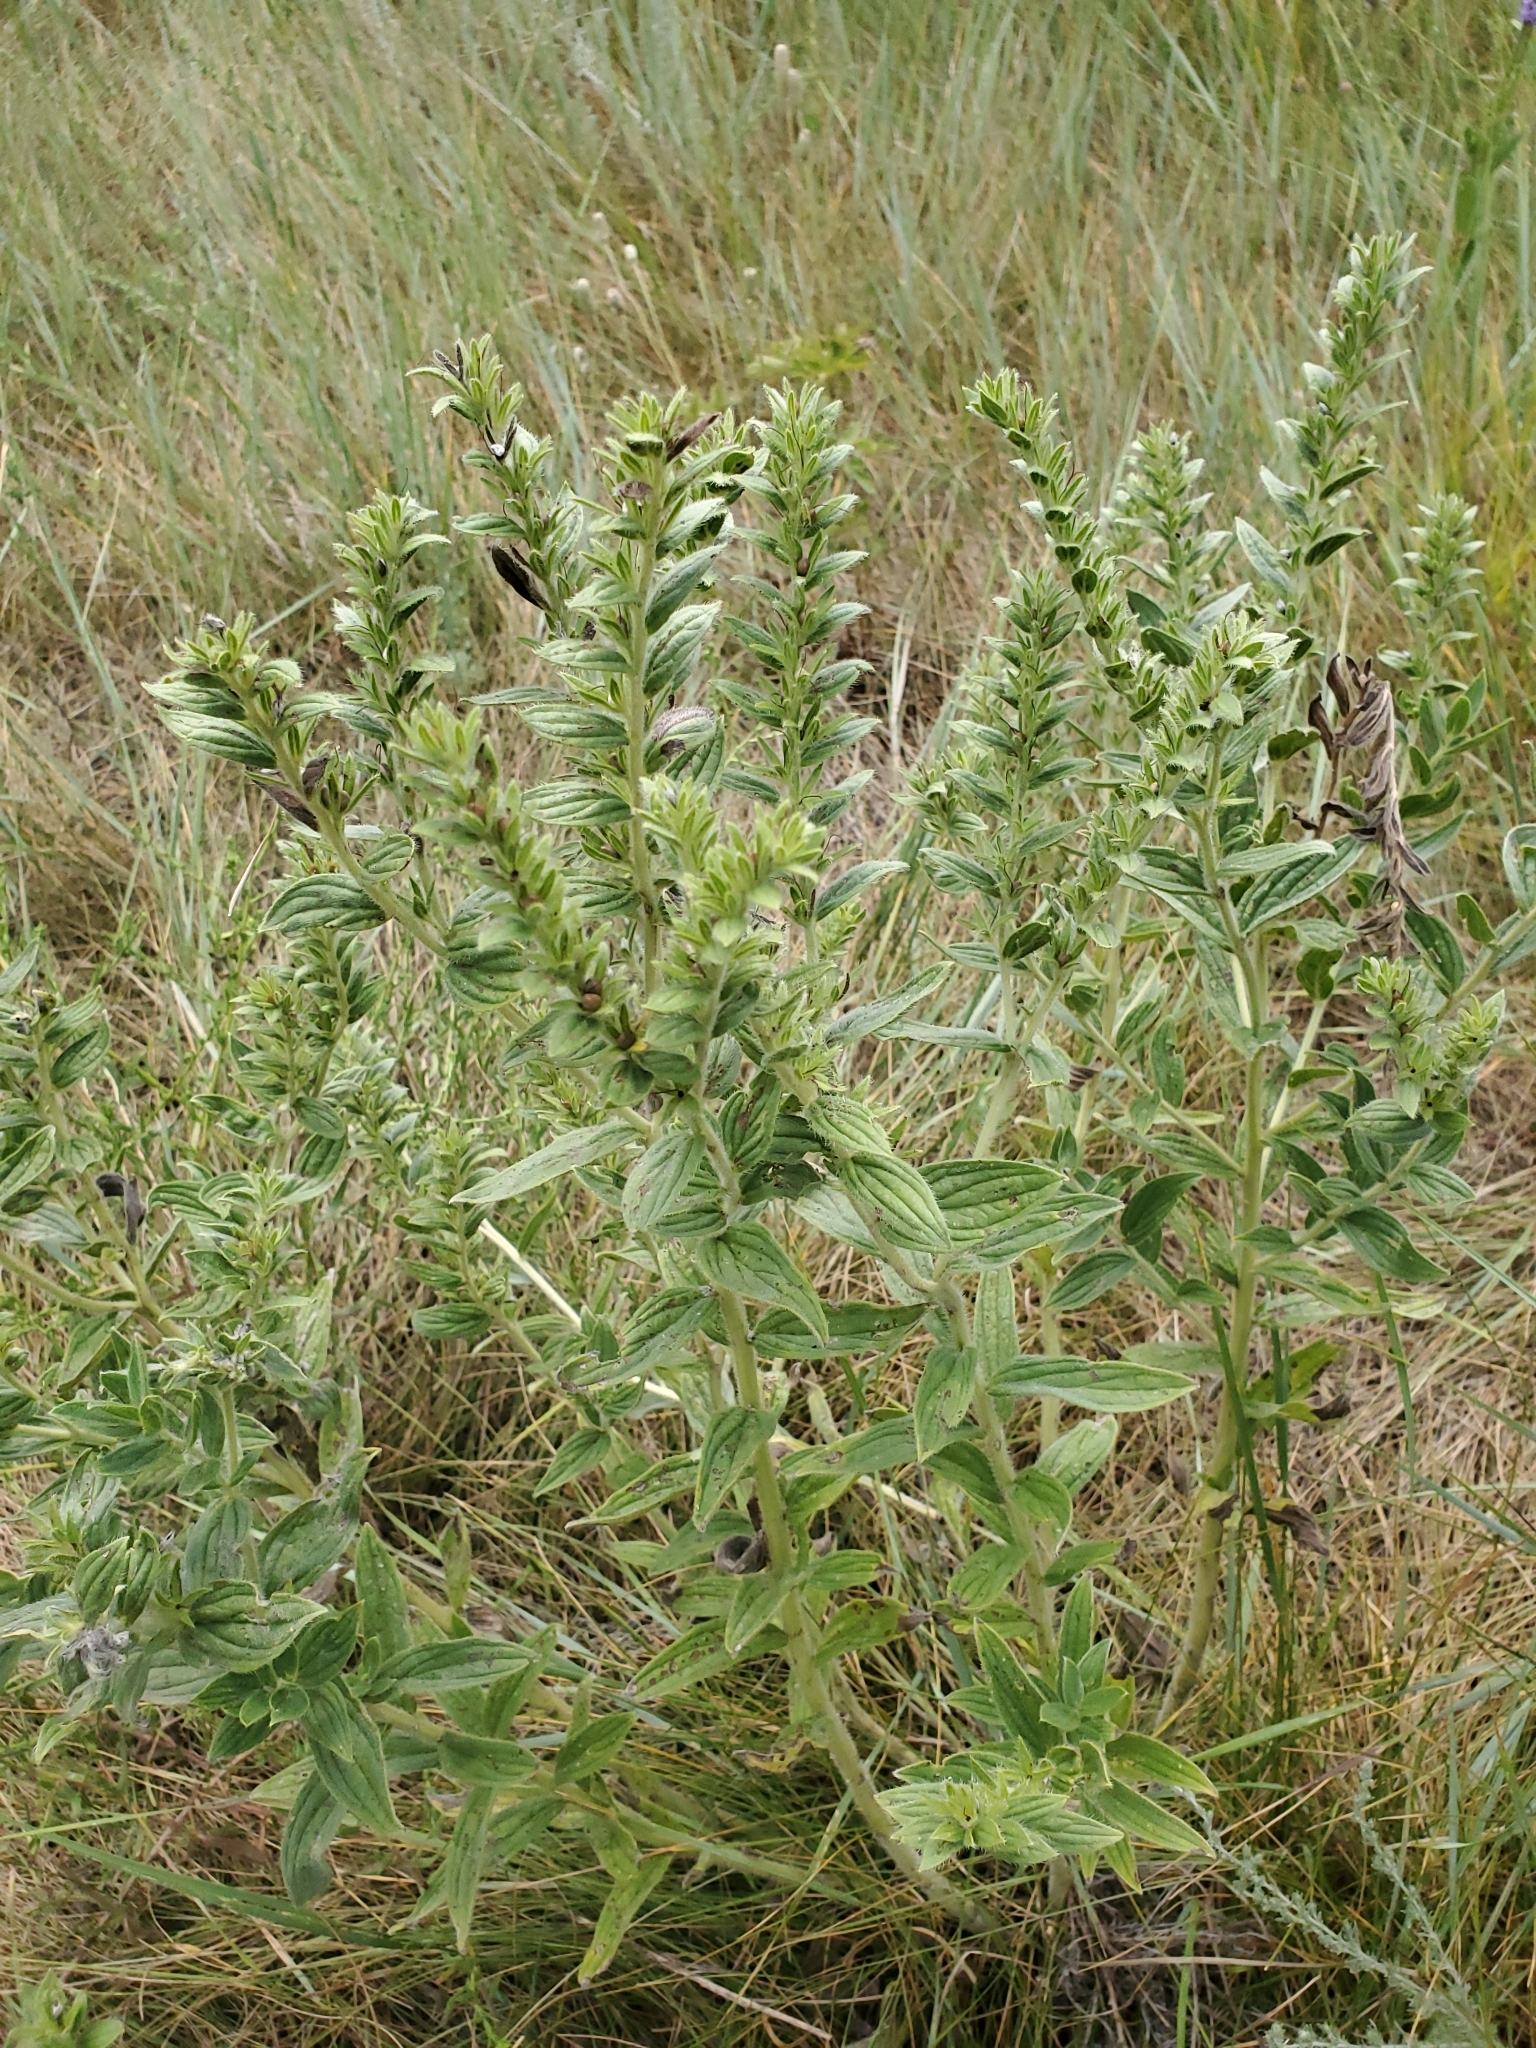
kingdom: Plantae
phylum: Tracheophyta
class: Magnoliopsida
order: Boraginales
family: Boraginaceae
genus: Lithospermum
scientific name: Lithospermum occidentale
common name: Western false gromwell
